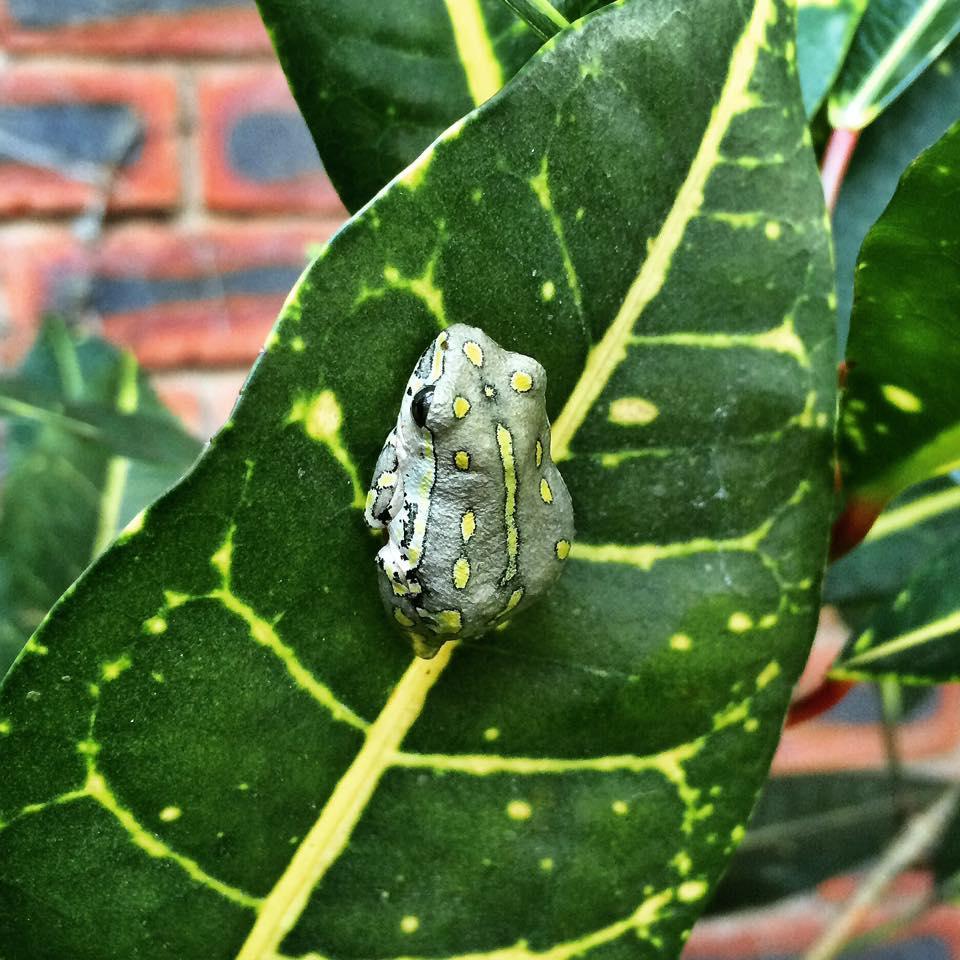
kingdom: Animalia
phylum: Chordata
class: Amphibia
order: Anura
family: Hyperoliidae
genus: Hyperolius
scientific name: Hyperolius marmoratus
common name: Painted reed frog
